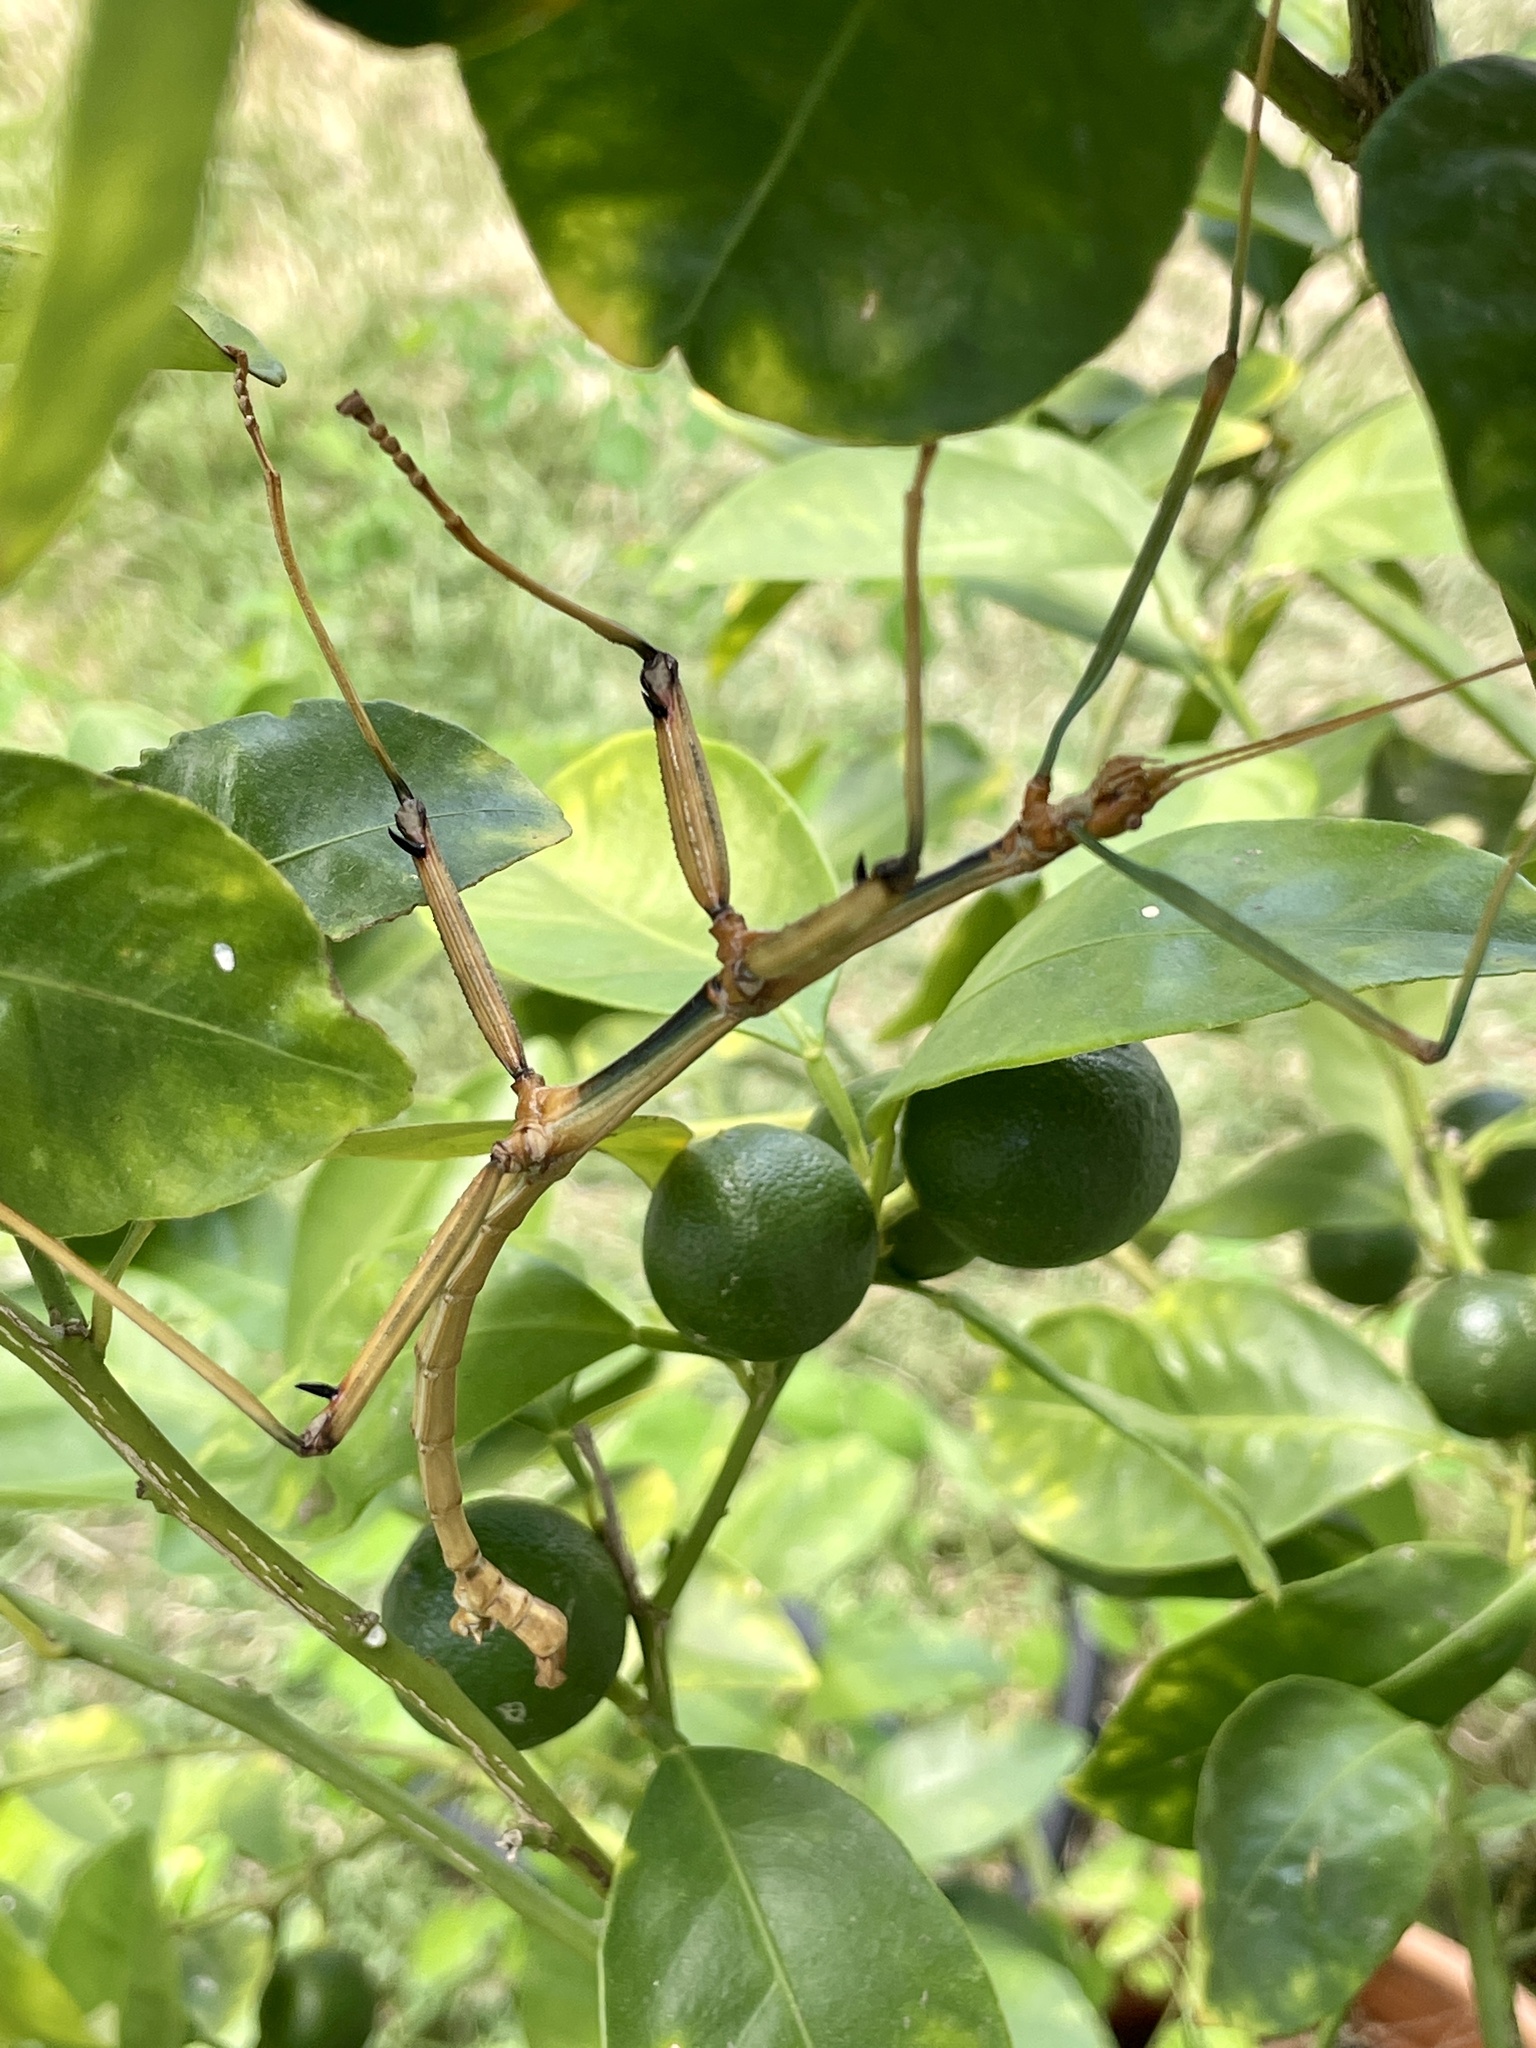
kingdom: Animalia
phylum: Arthropoda
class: Insecta
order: Phasmida
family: Diapheromeridae
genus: Megaphasma
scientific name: Megaphasma denticrus
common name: Giant walkingstick
